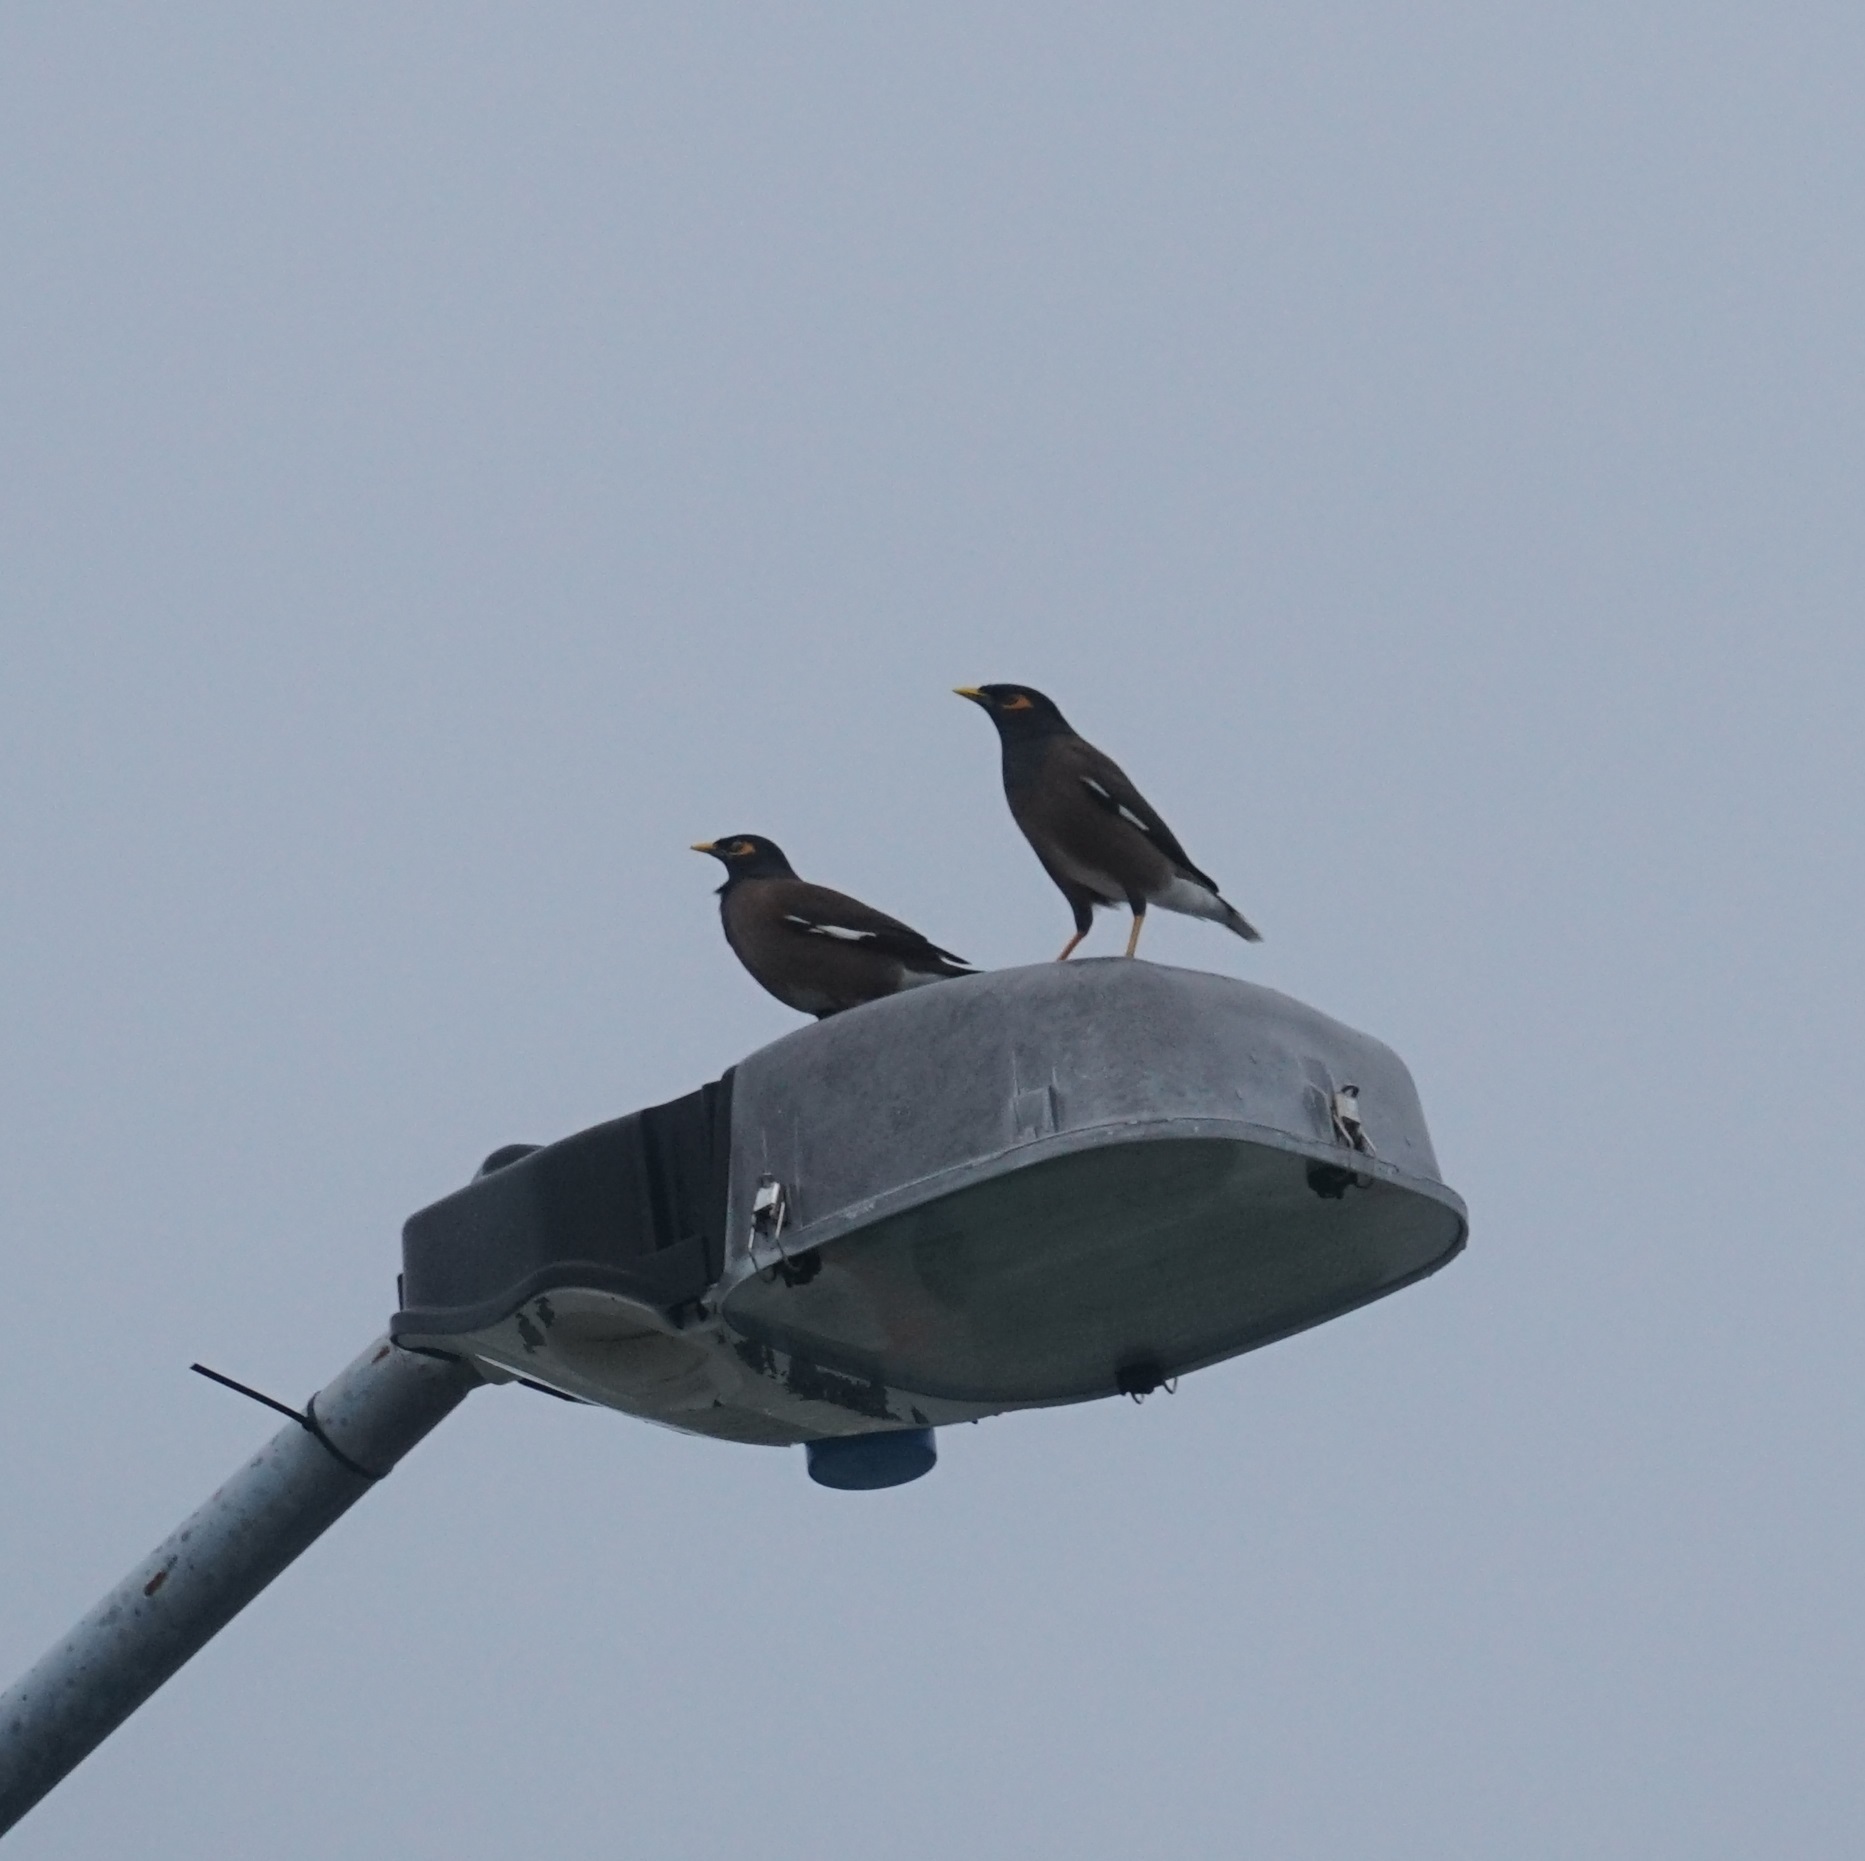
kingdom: Animalia
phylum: Chordata
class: Aves
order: Passeriformes
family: Sturnidae
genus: Acridotheres
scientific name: Acridotheres tristis
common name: Common myna
